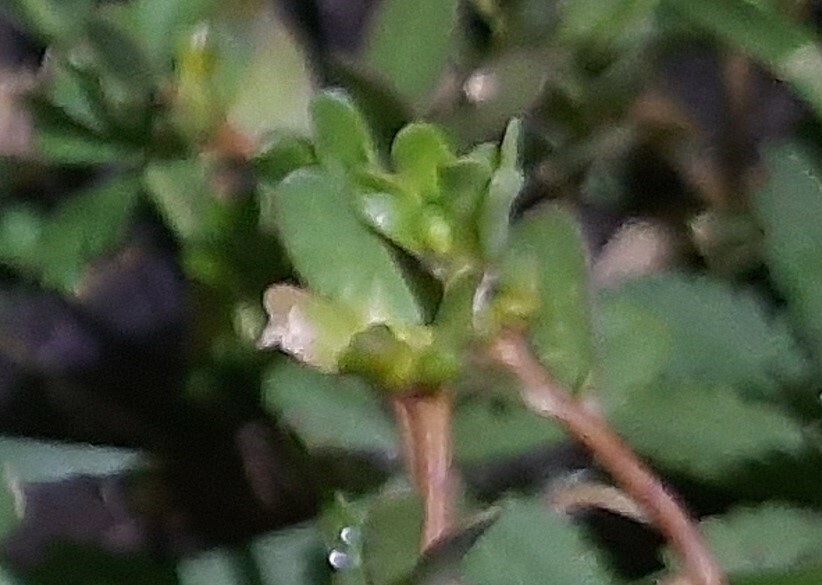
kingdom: Plantae
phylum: Tracheophyta
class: Magnoliopsida
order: Caryophyllales
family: Portulacaceae
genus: Portulaca
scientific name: Portulaca oleracea
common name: Common purslane
